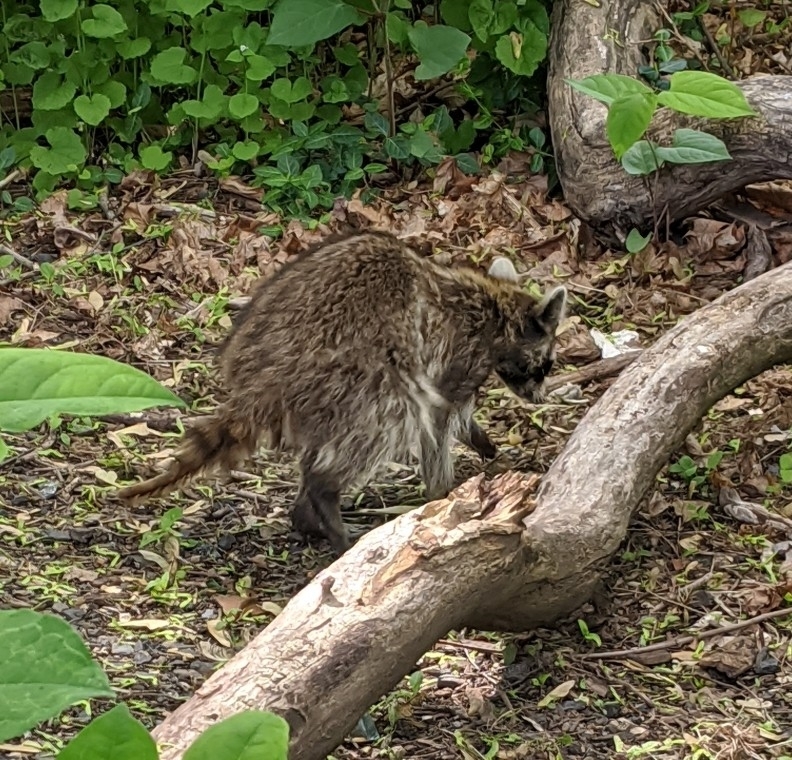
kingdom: Animalia
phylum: Chordata
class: Mammalia
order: Carnivora
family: Procyonidae
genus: Procyon
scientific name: Procyon lotor
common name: Raccoon
